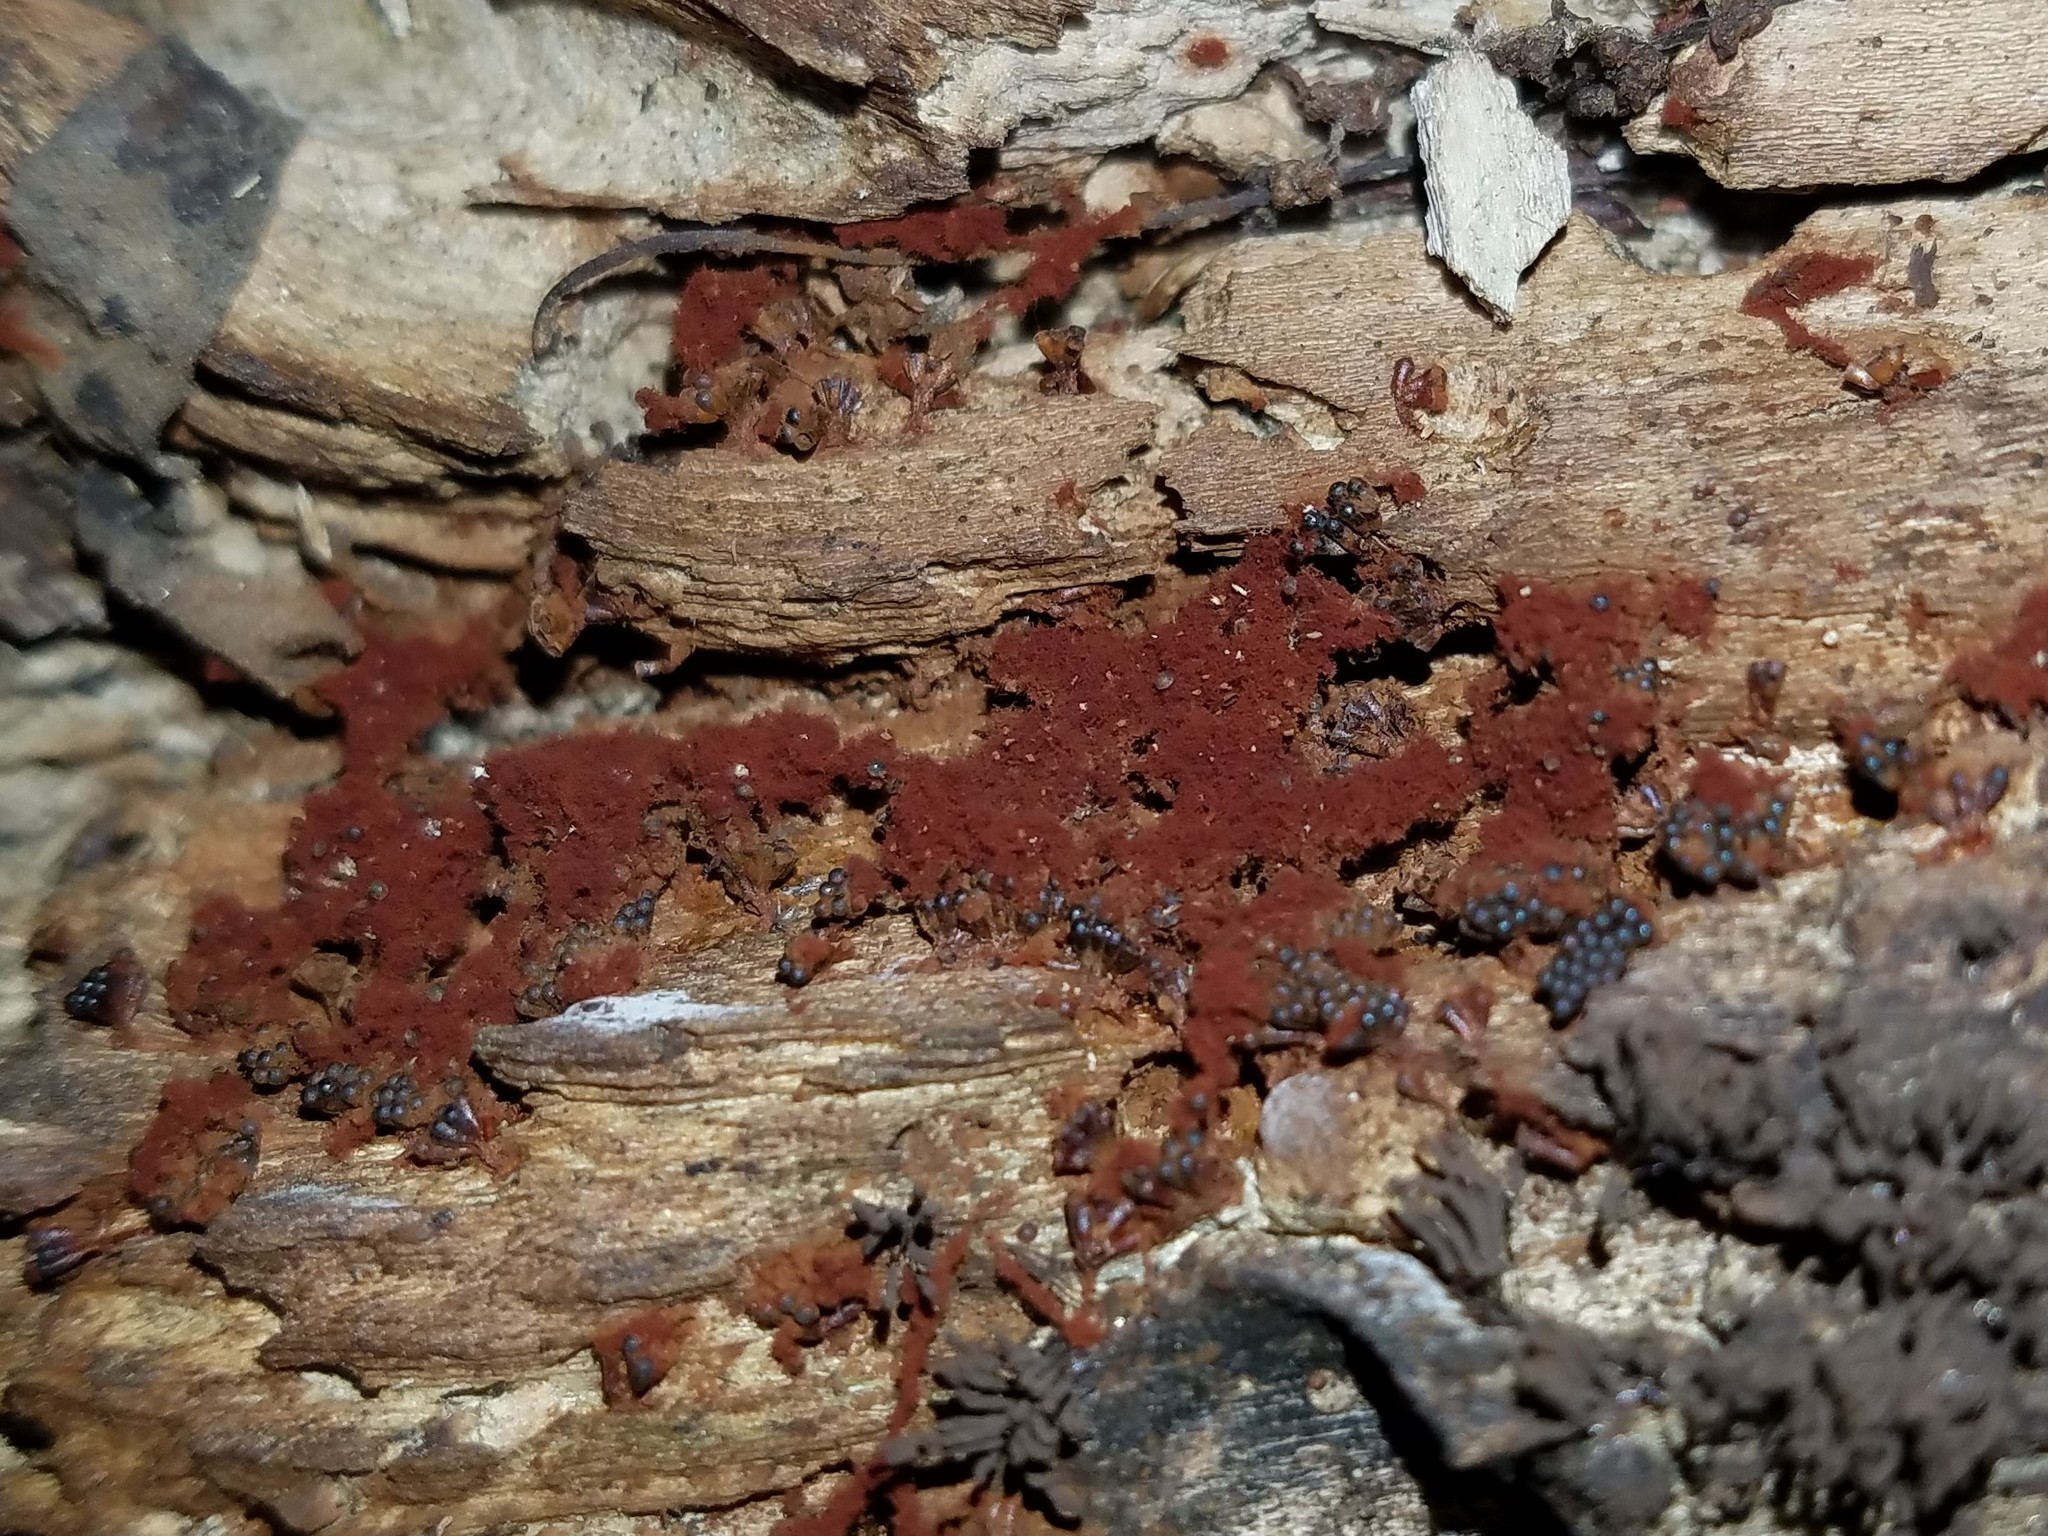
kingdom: Protozoa
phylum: Mycetozoa
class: Myxomycetes
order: Trichiales
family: Trichiaceae
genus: Metatrichia
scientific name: Metatrichia vesparia
